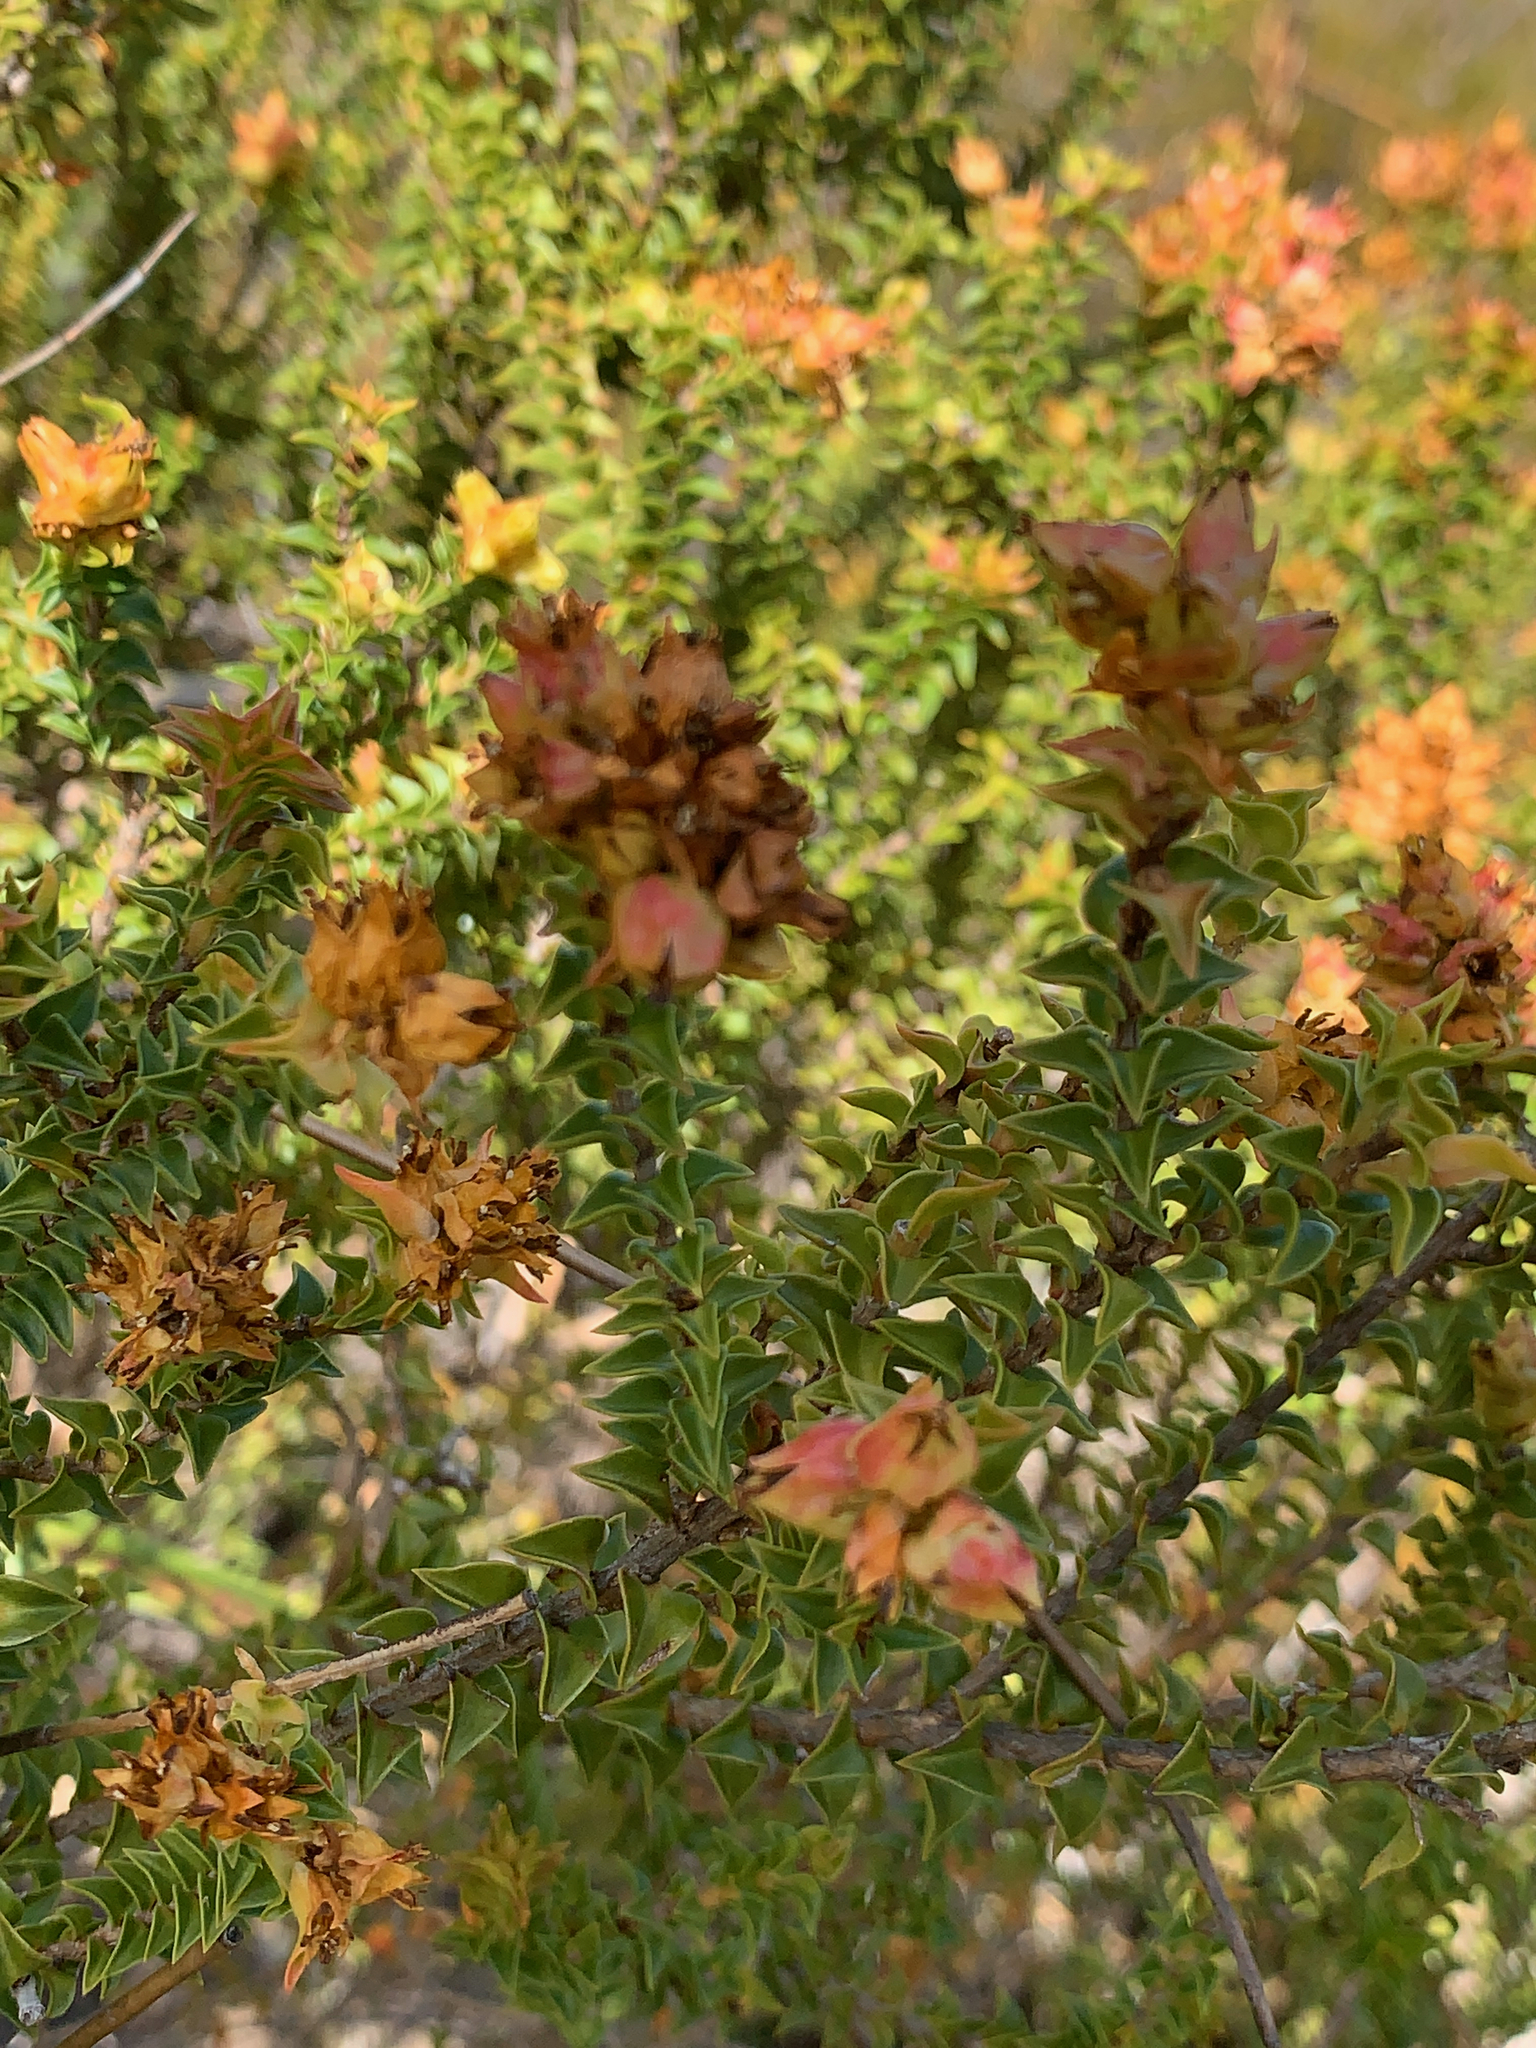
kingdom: Plantae
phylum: Tracheophyta
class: Magnoliopsida
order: Myrtales
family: Penaeaceae
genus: Penaea
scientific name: Penaea mucronata
